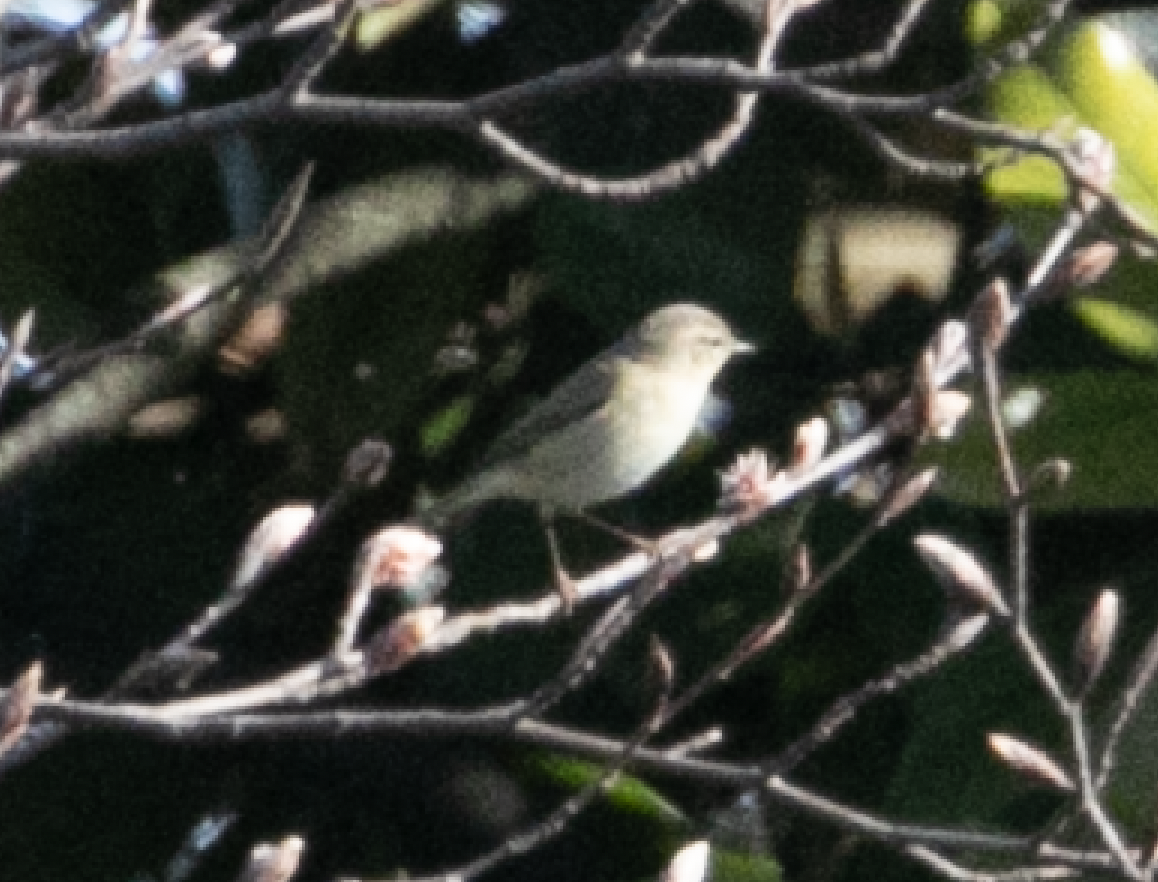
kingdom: Animalia
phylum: Chordata
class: Aves
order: Passeriformes
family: Phylloscopidae
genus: Phylloscopus
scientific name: Phylloscopus collybita
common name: Common chiffchaff
